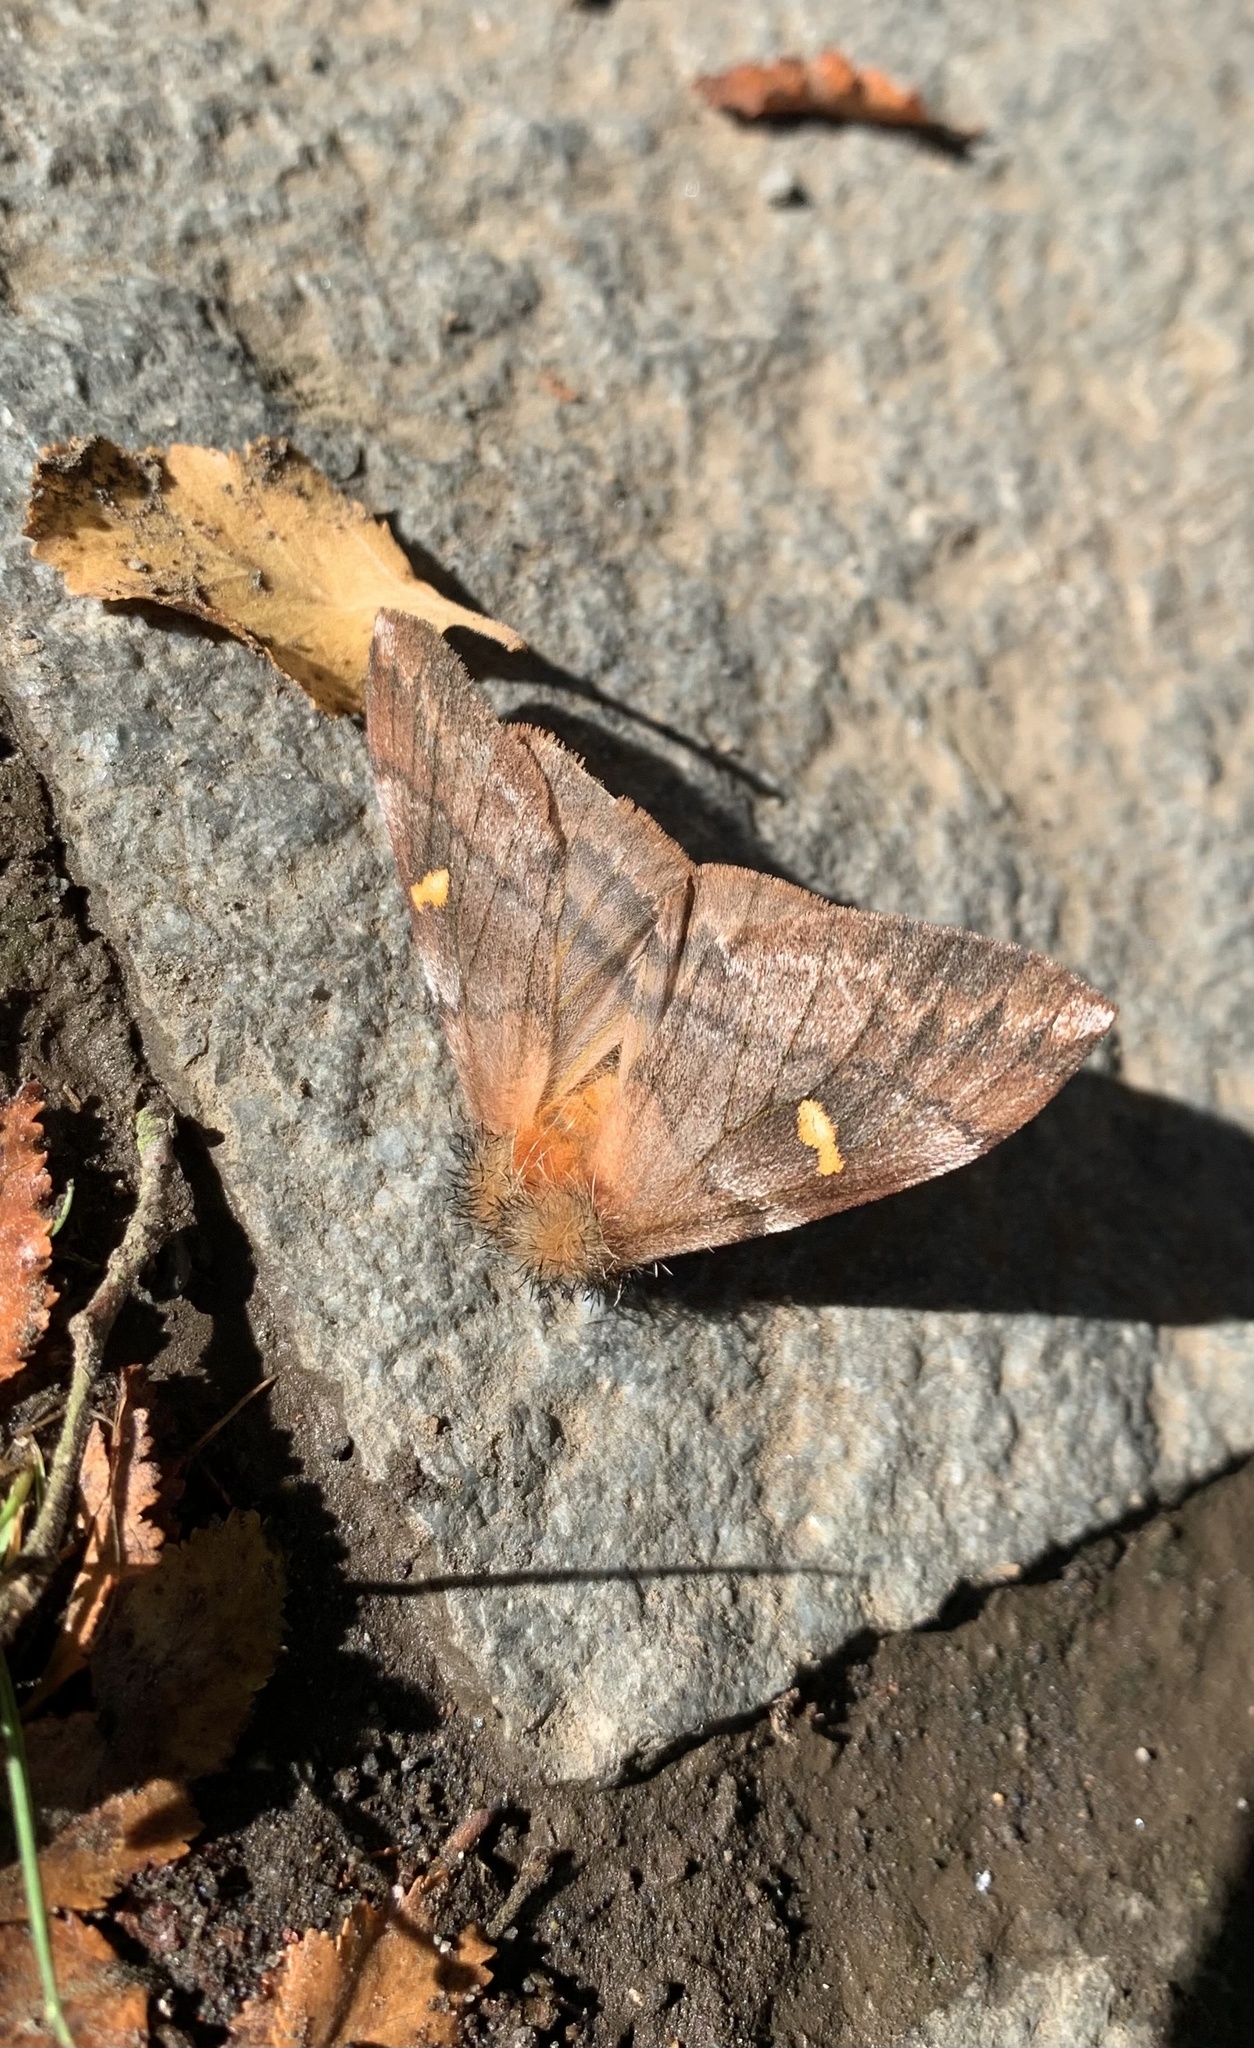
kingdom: Animalia
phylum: Arthropoda
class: Insecta
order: Lepidoptera
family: Saturniidae
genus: Ormiscodes
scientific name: Ormiscodes amphinome
